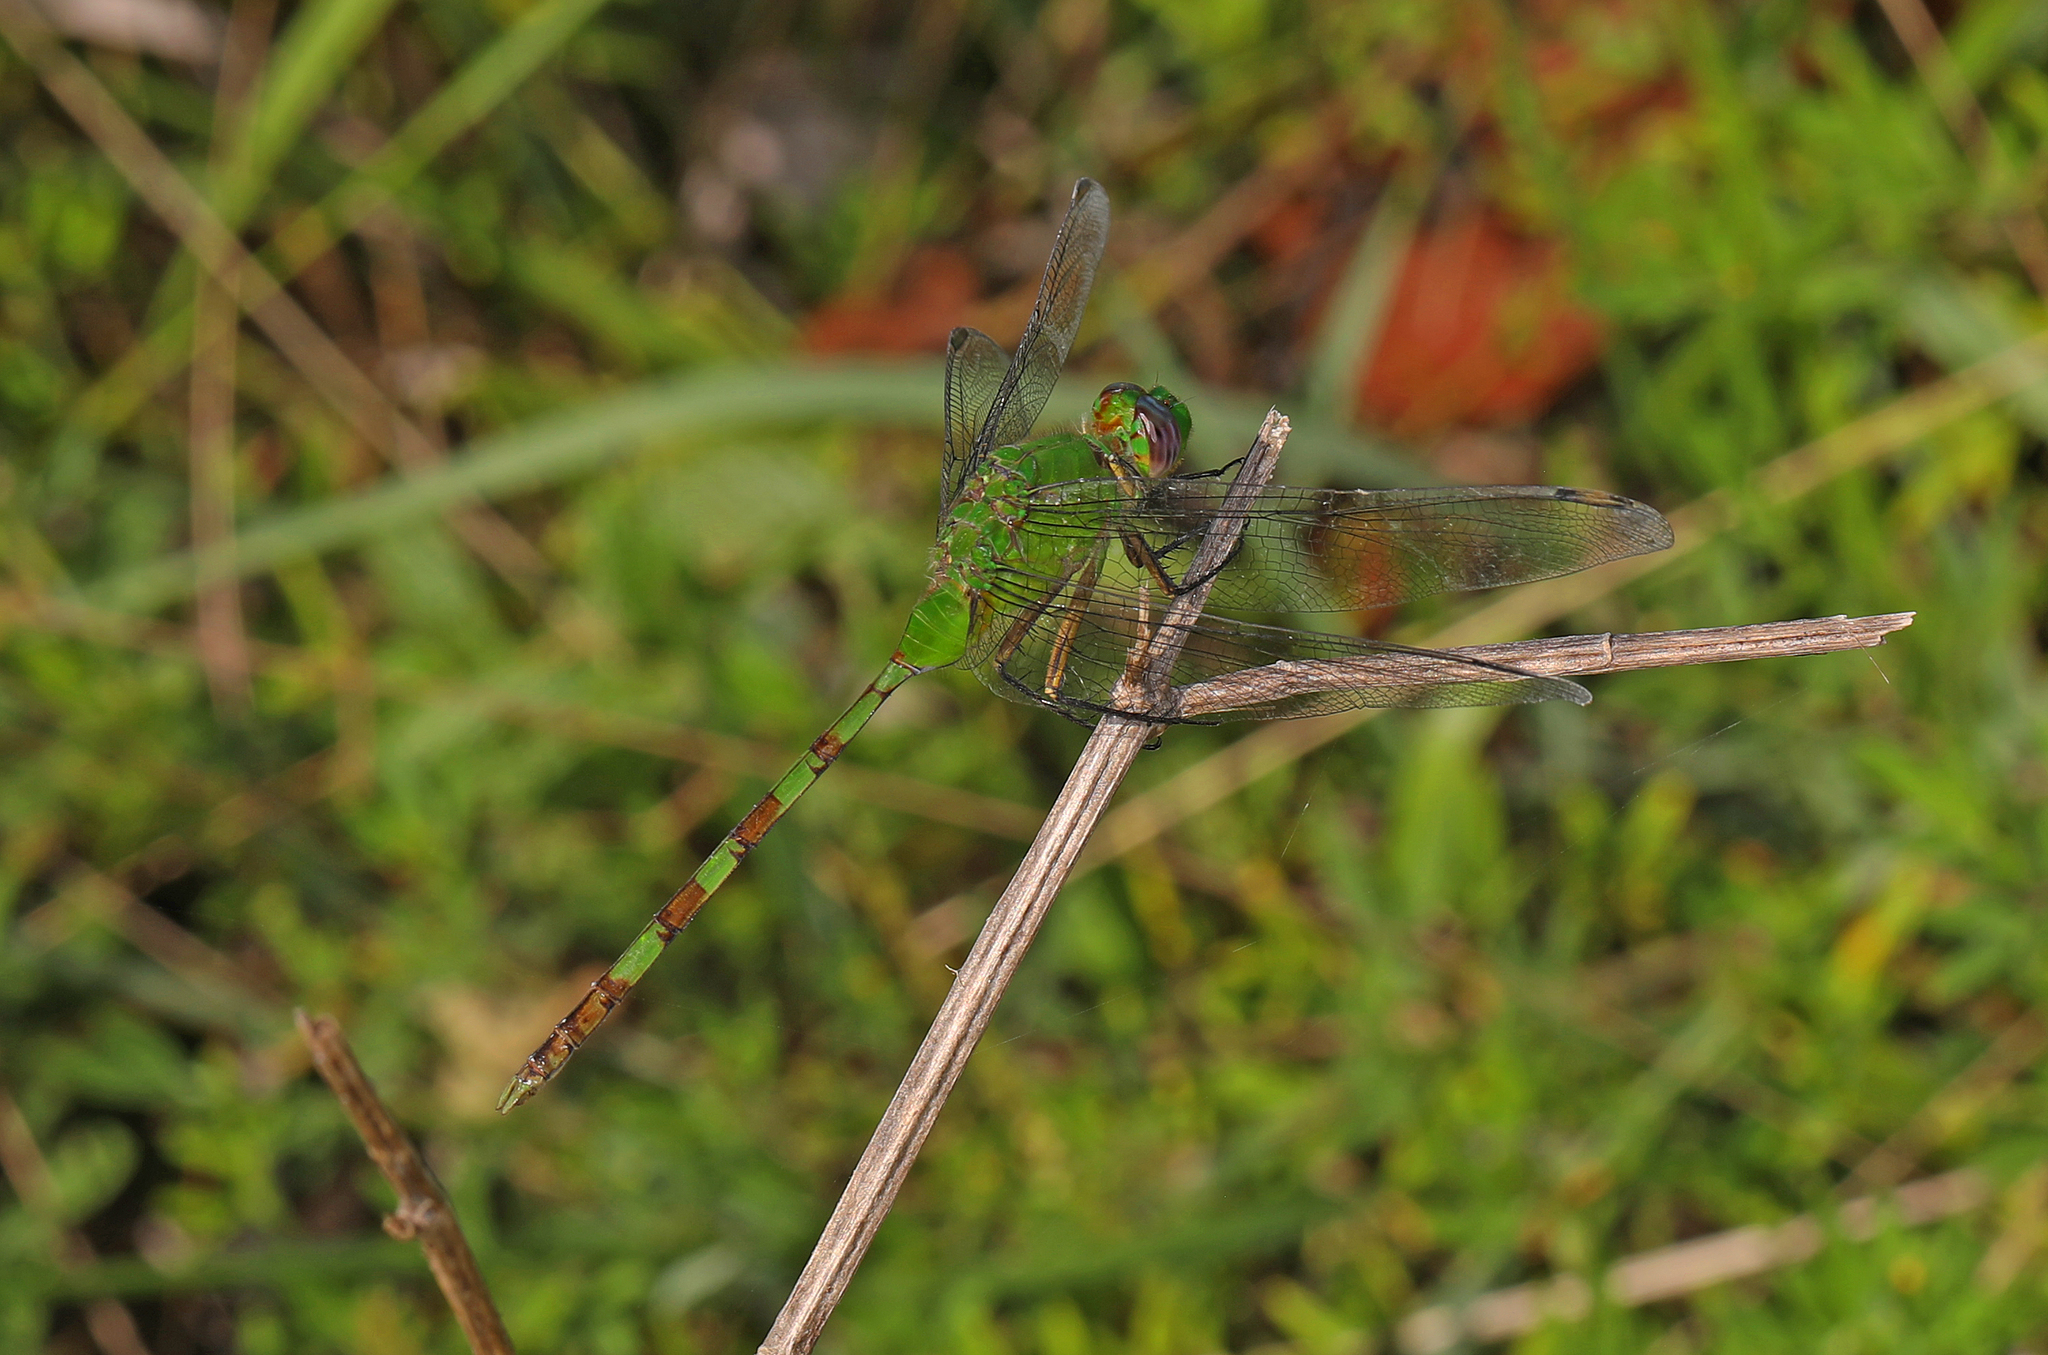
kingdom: Animalia
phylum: Arthropoda
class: Insecta
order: Odonata
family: Libellulidae
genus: Erythemis
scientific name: Erythemis vesiculosa
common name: Great pondhawk
